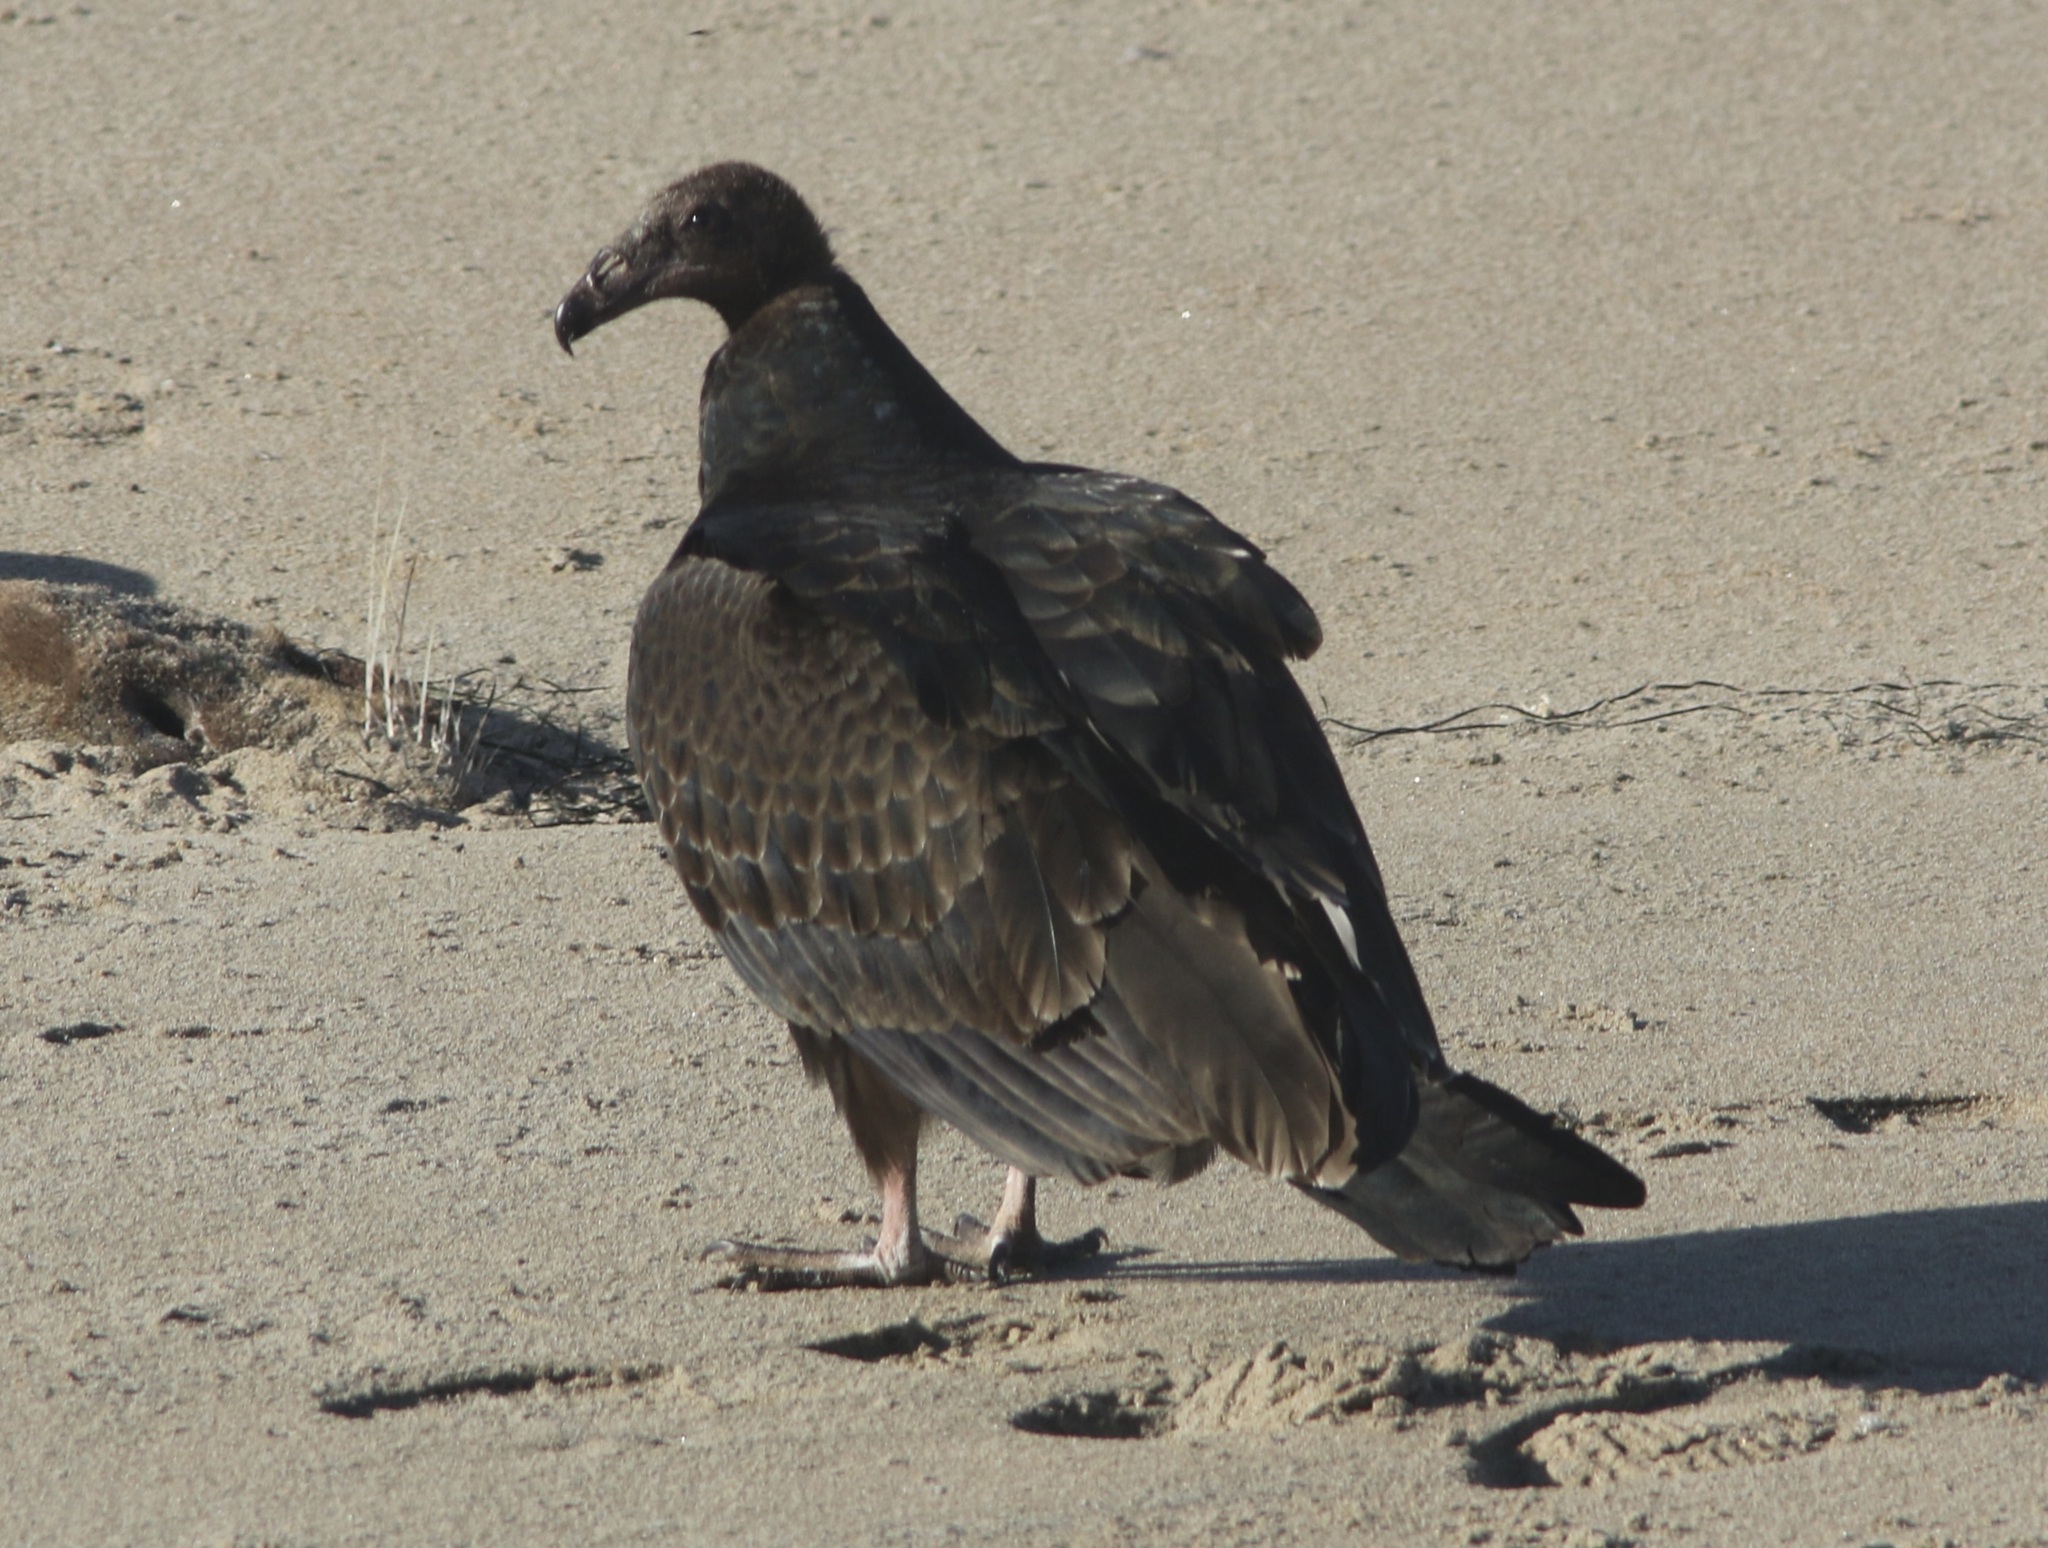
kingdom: Animalia
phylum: Chordata
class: Aves
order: Accipitriformes
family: Cathartidae
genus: Cathartes
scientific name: Cathartes aura
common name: Turkey vulture
